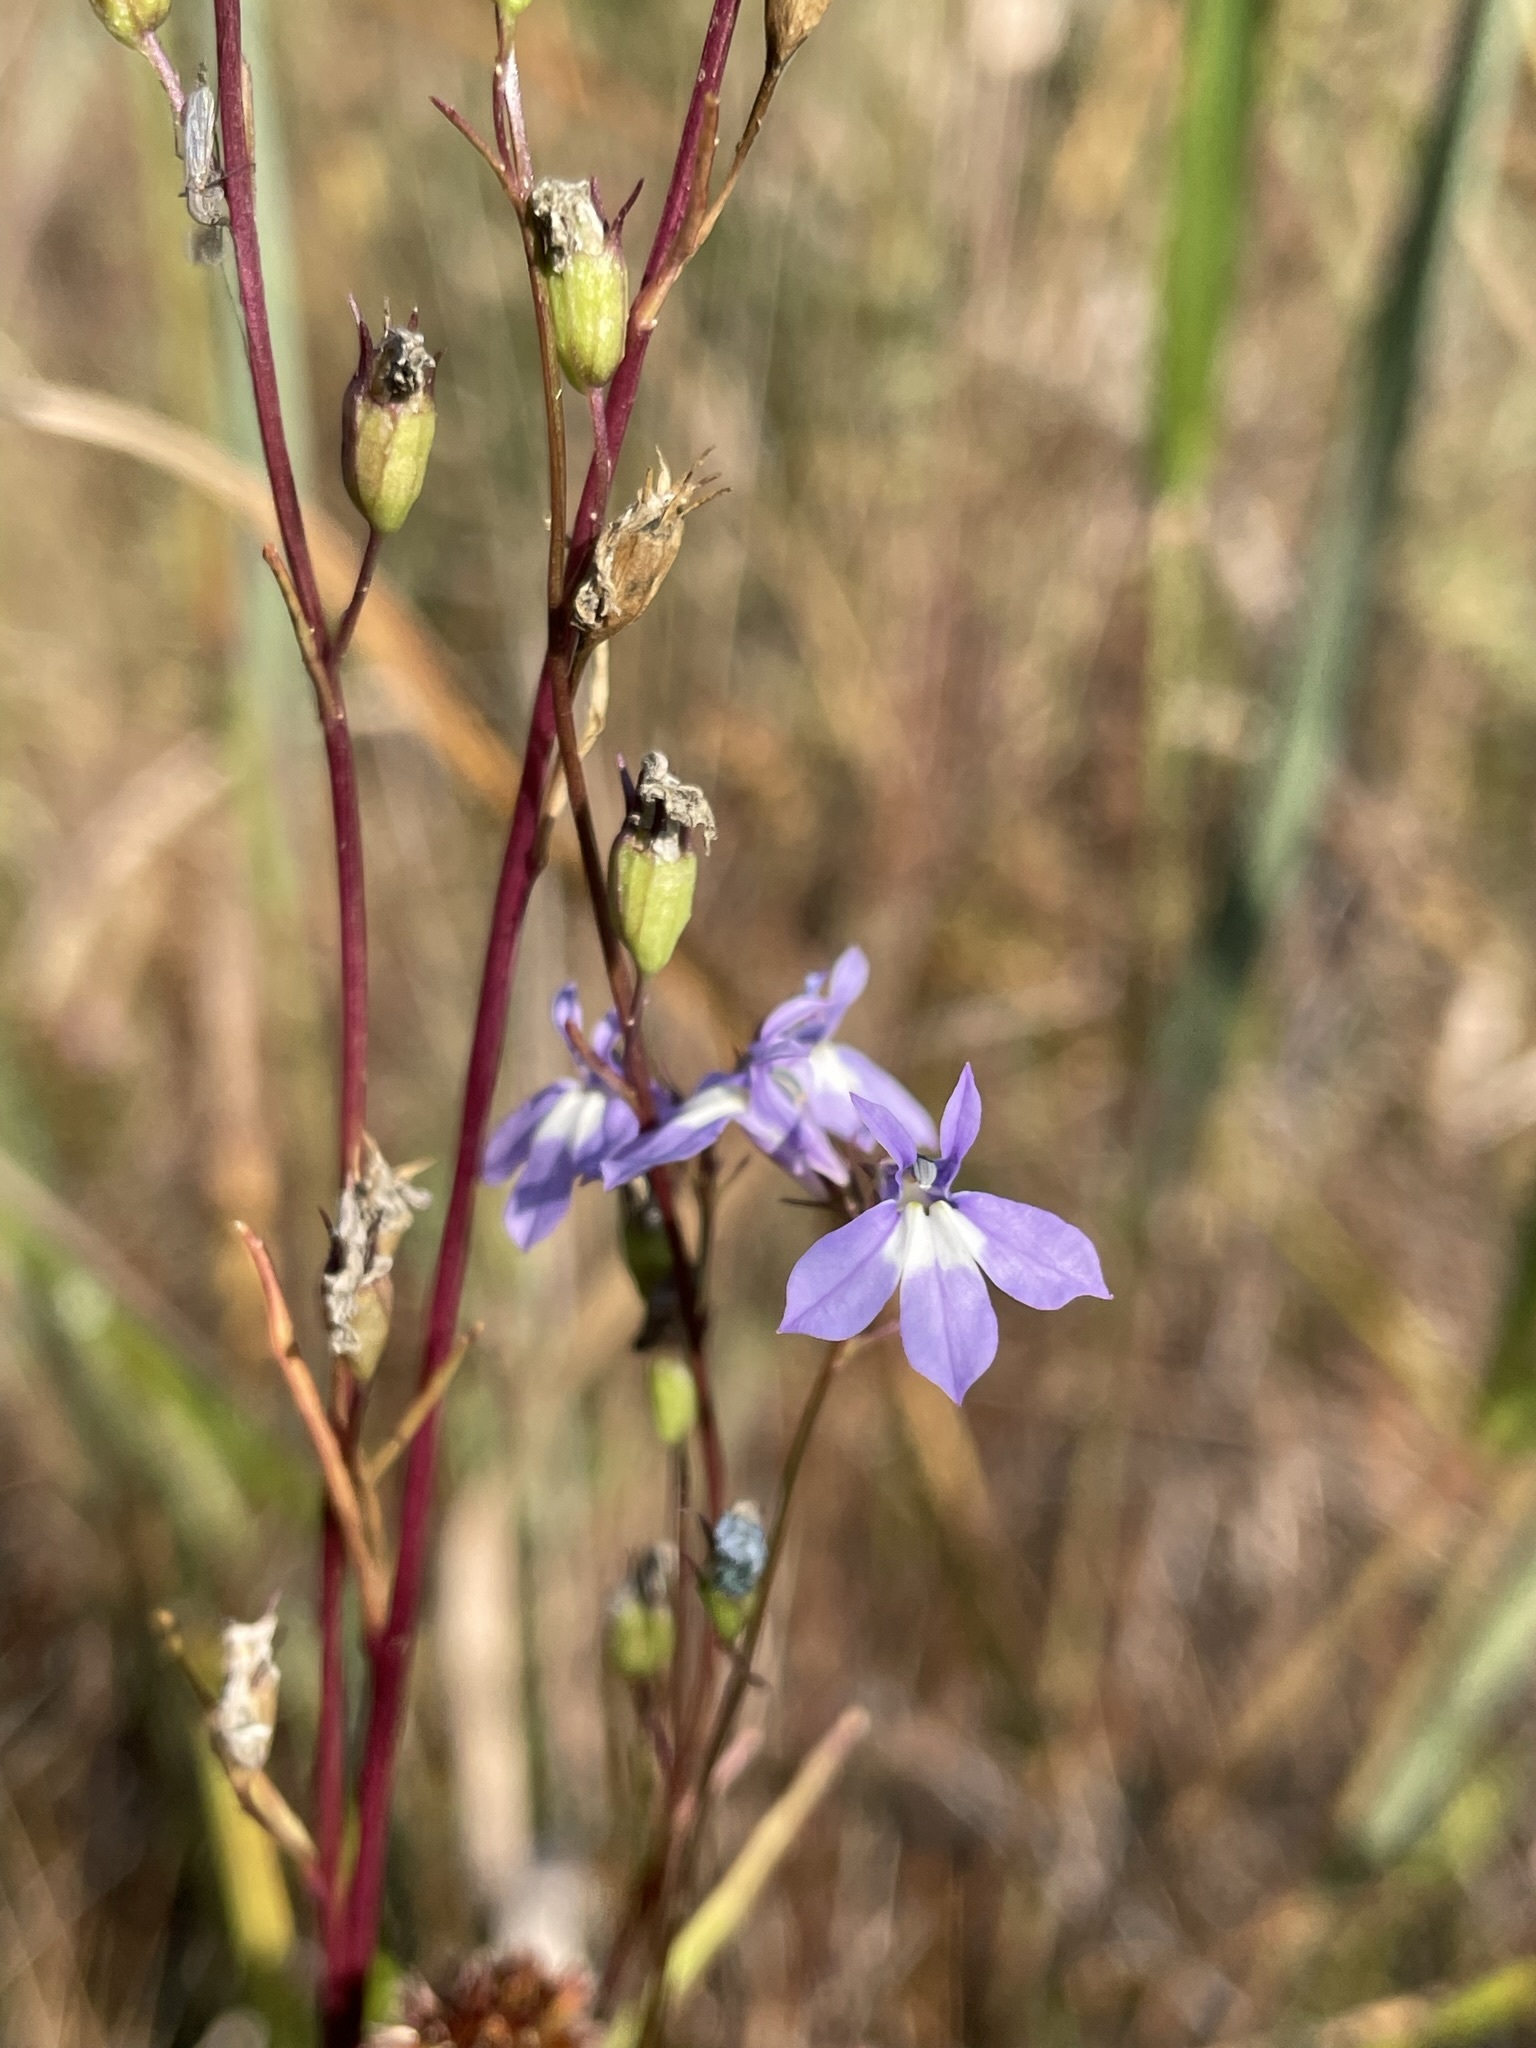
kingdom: Plantae
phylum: Tracheophyta
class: Magnoliopsida
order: Asterales
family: Campanulaceae
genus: Lobelia
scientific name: Lobelia kalmii
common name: Kalm's lobelia
